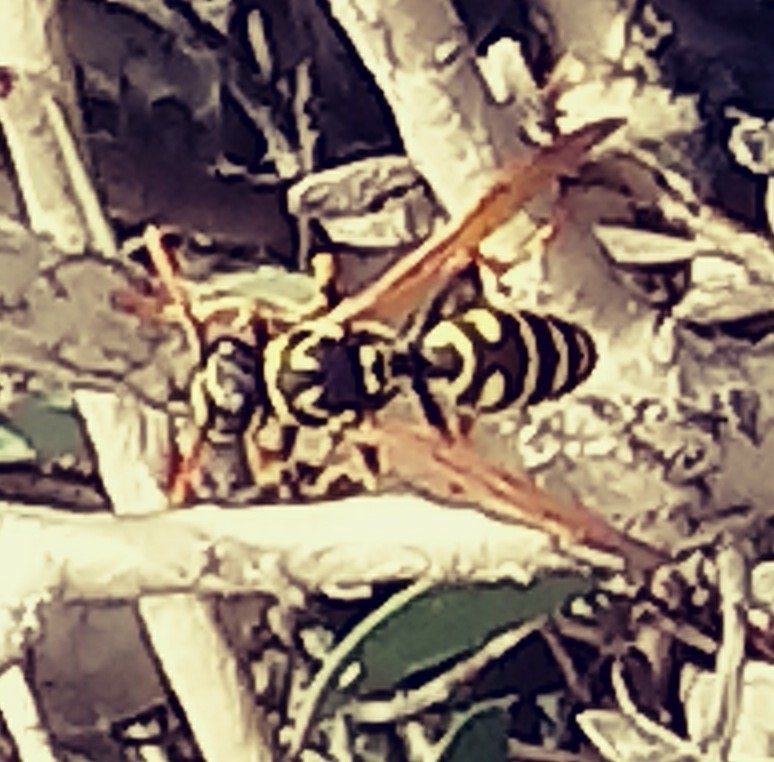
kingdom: Animalia
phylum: Arthropoda
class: Insecta
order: Hymenoptera
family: Eumenidae
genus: Polistes
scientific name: Polistes dominula
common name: Paper wasp
